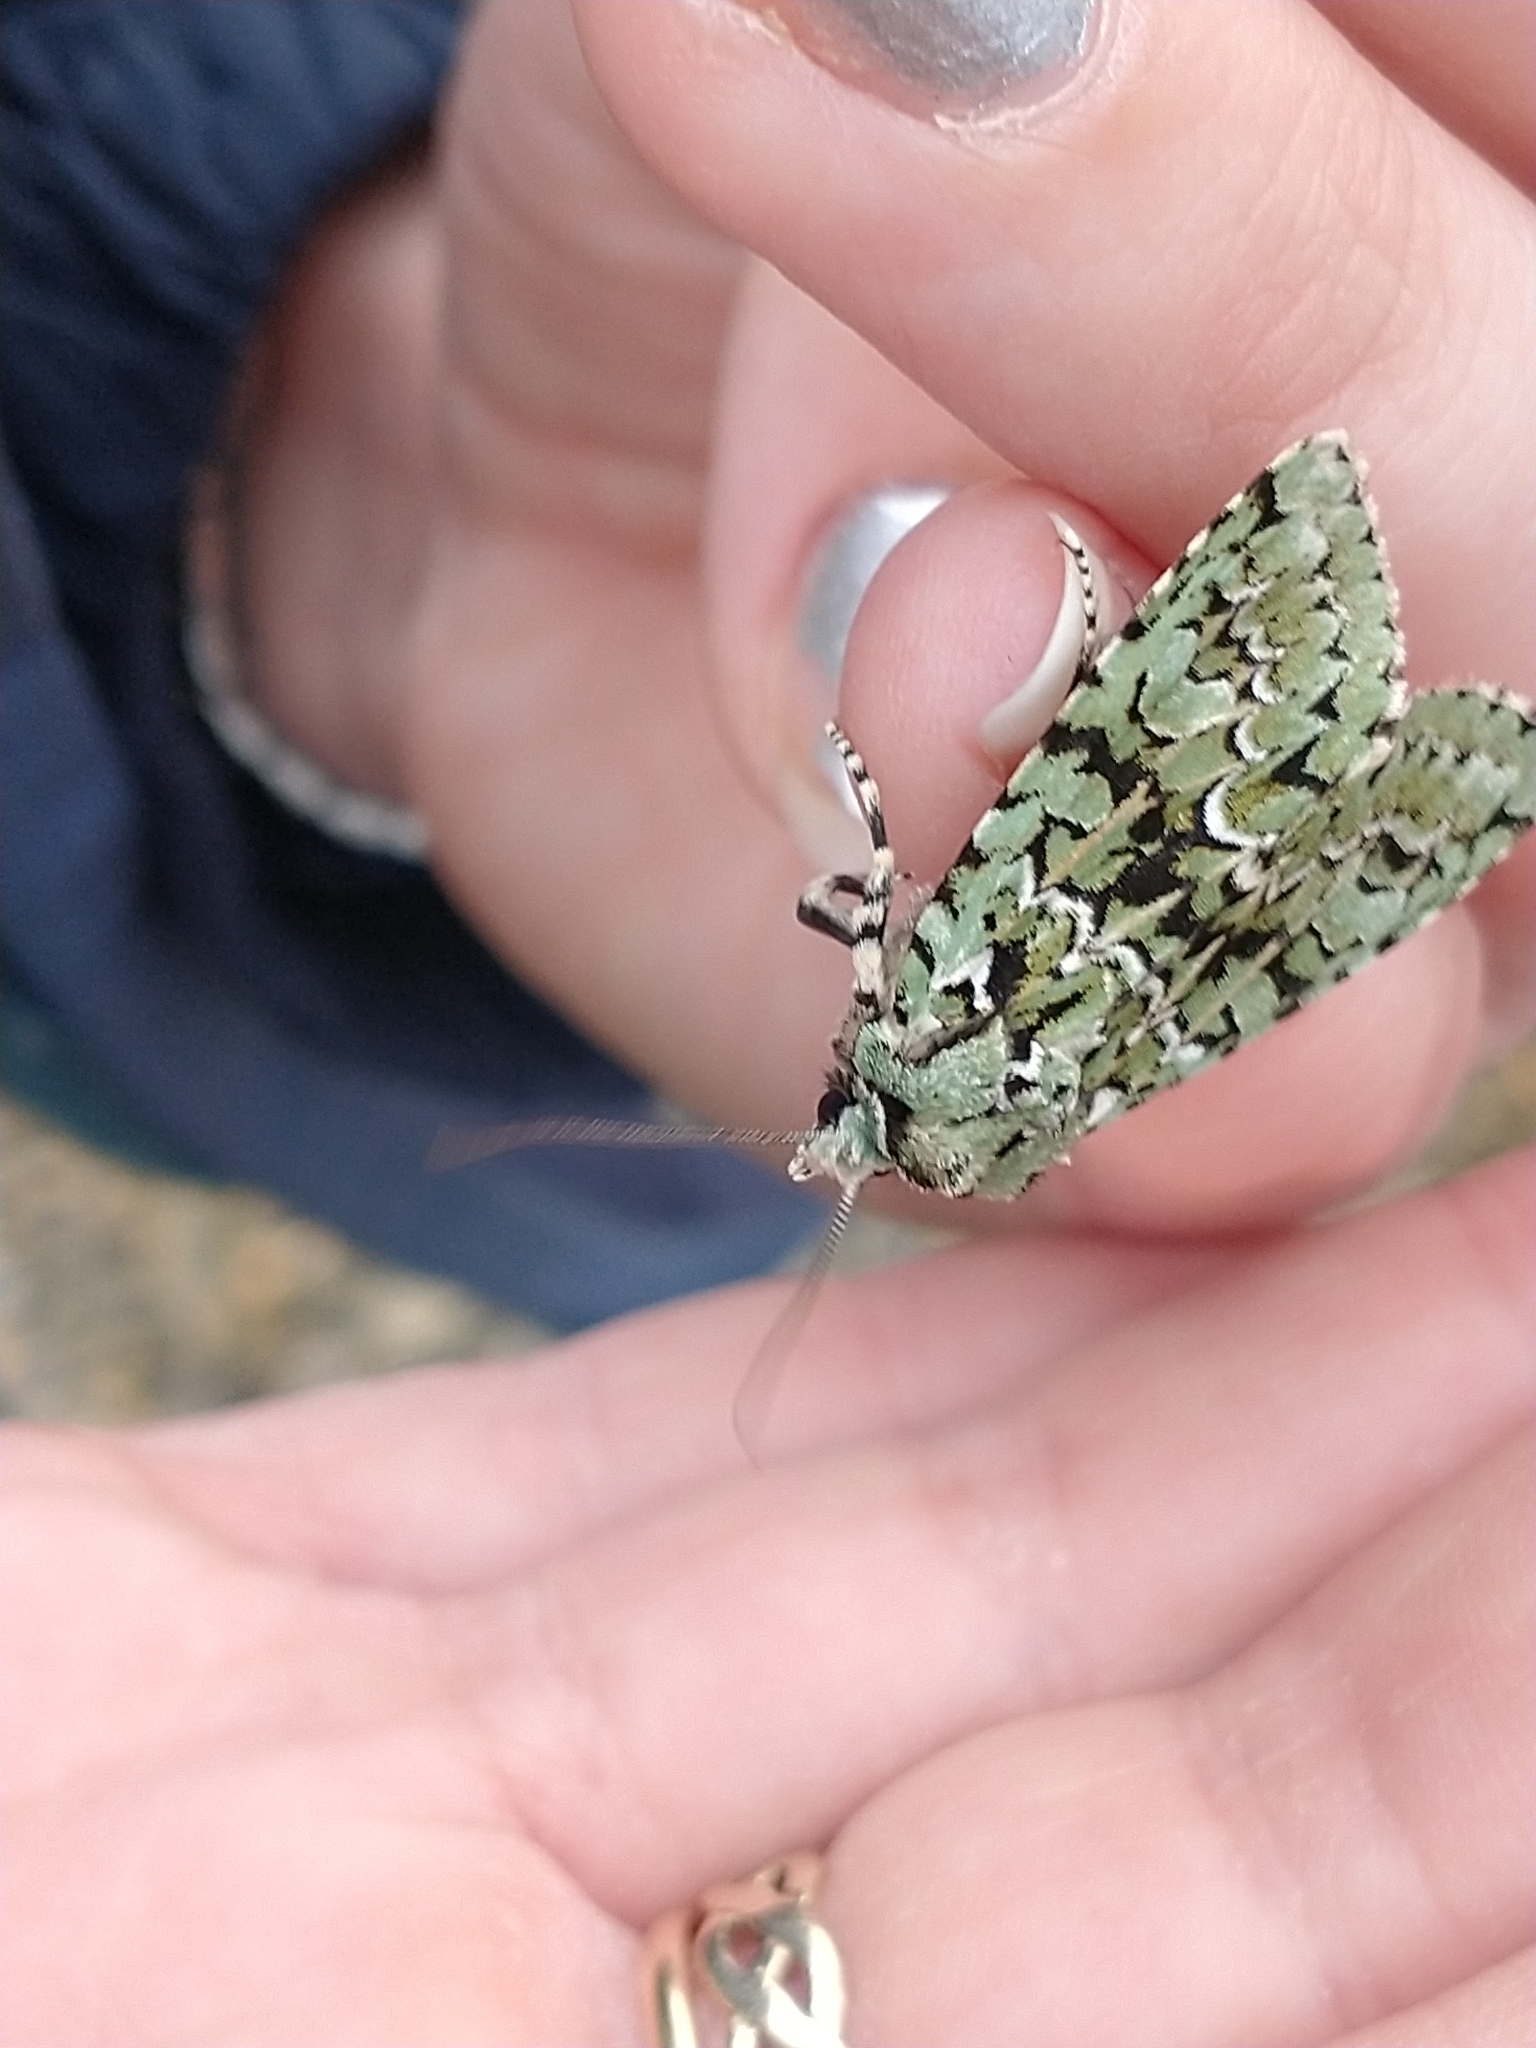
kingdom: Animalia
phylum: Arthropoda
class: Insecta
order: Lepidoptera
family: Noctuidae
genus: Griposia
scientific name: Griposia aprilina
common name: Merveille du jour
